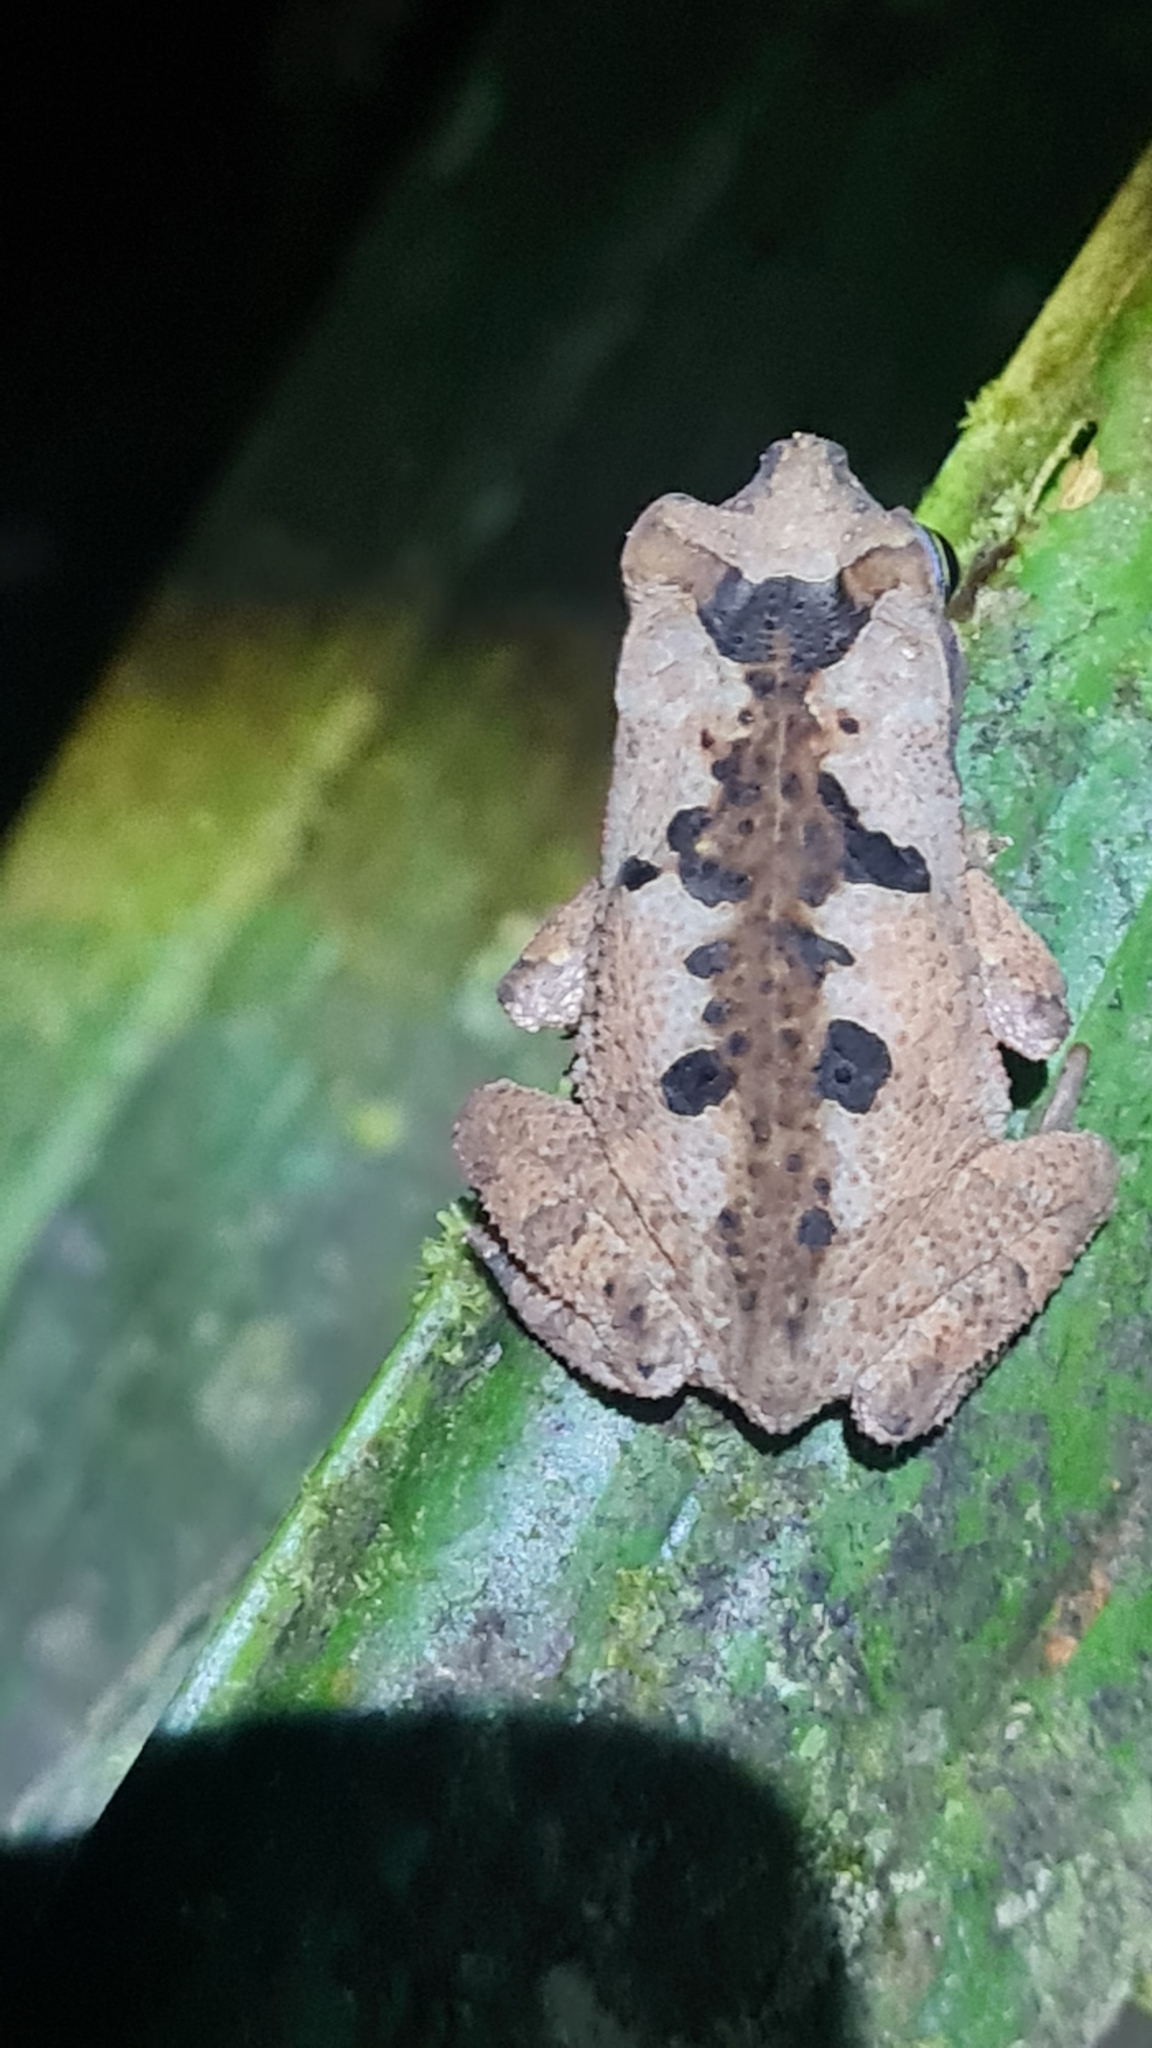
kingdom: Animalia
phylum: Chordata
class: Amphibia
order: Anura
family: Bufonidae
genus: Rhinella
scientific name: Rhinella alata
